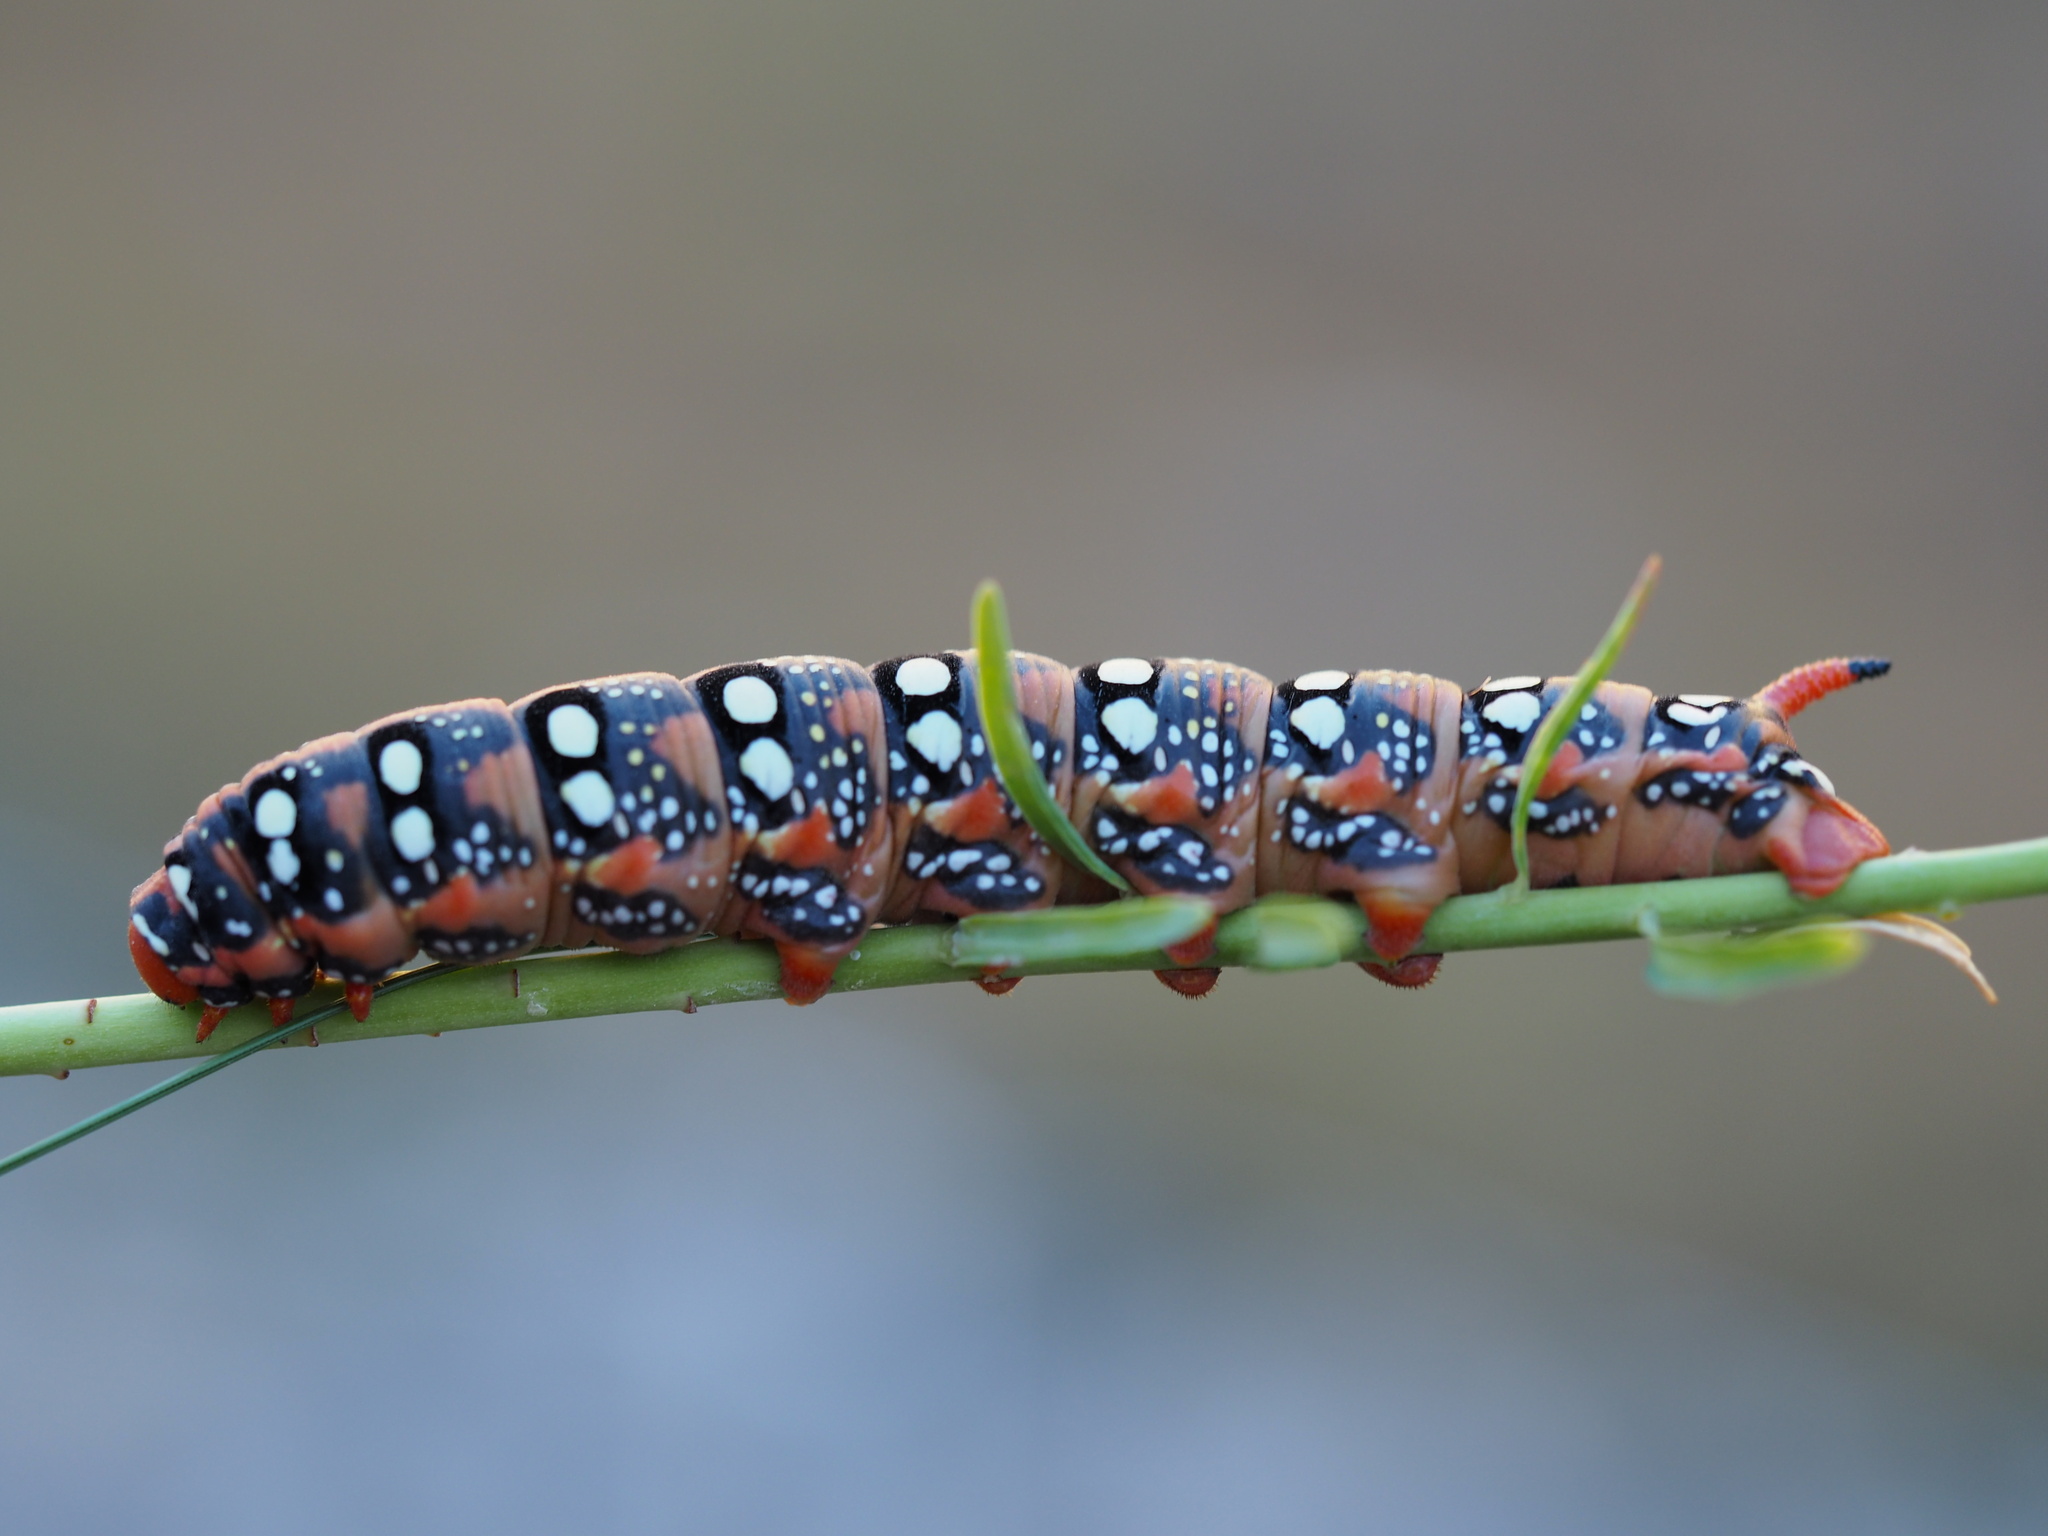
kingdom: Animalia
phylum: Arthropoda
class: Insecta
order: Lepidoptera
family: Sphingidae
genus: Hyles
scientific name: Hyles euphorbiae
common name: Spurge hawk-moth
